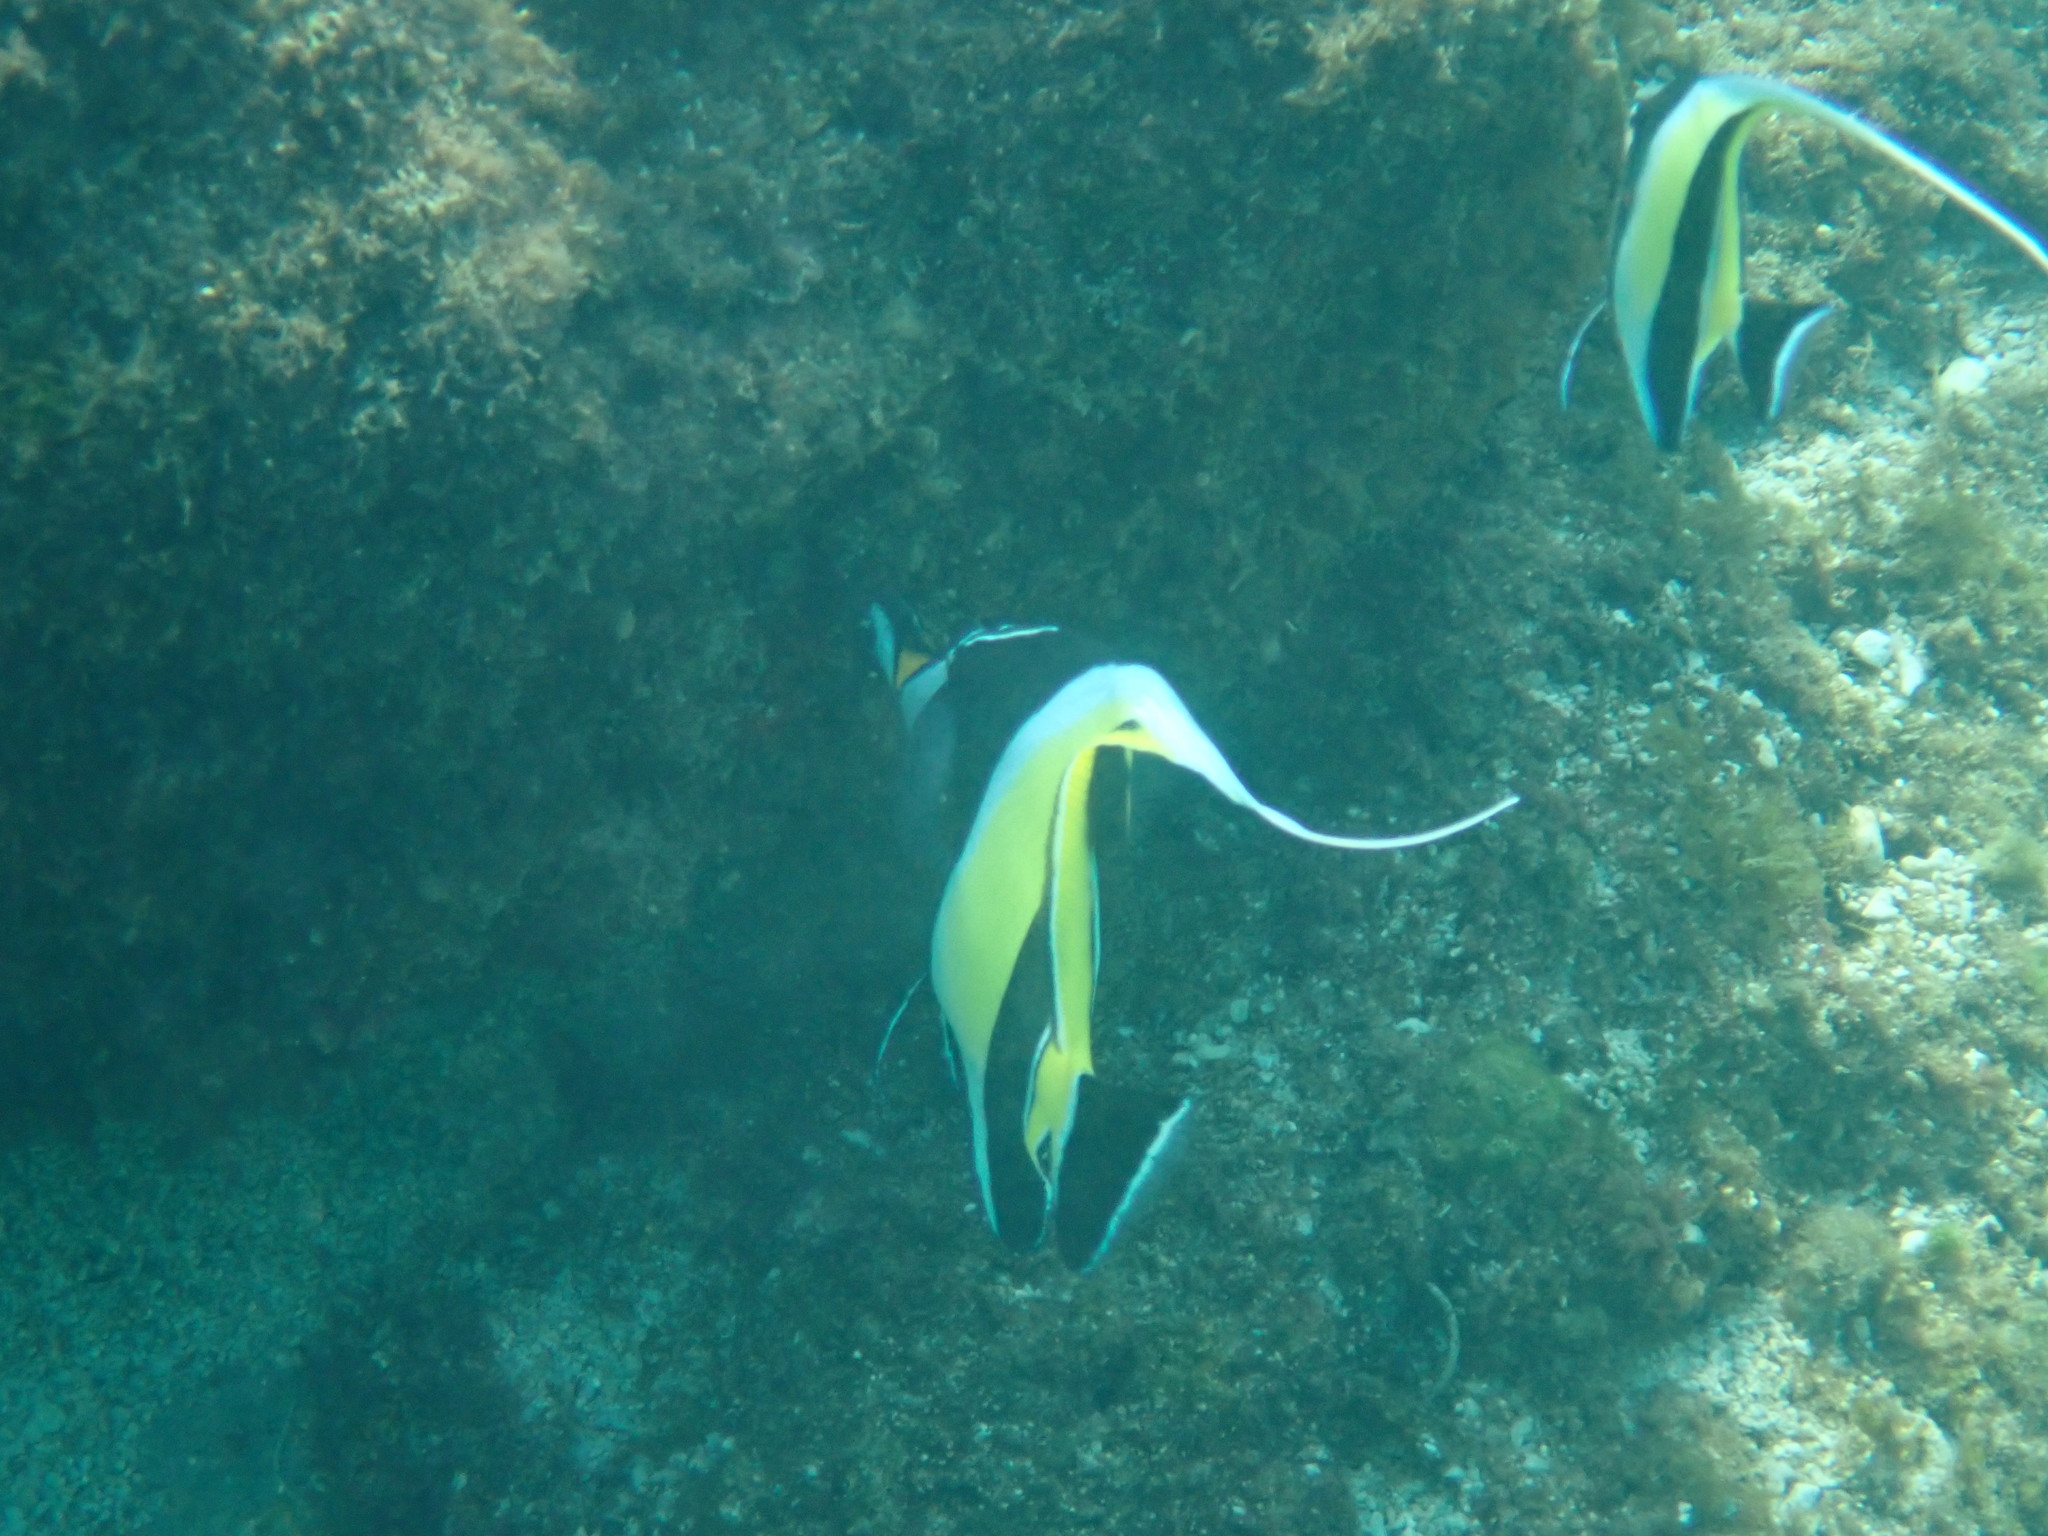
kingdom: Animalia
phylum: Chordata
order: Perciformes
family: Zanclidae
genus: Zanclus
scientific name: Zanclus cornutus
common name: Moorish idol
